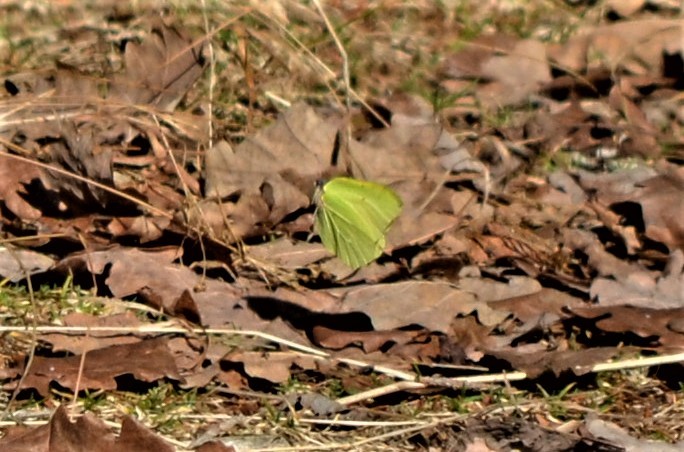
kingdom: Animalia
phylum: Arthropoda
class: Insecta
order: Lepidoptera
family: Pieridae
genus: Gonepteryx
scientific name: Gonepteryx rhamni
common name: Brimstone
